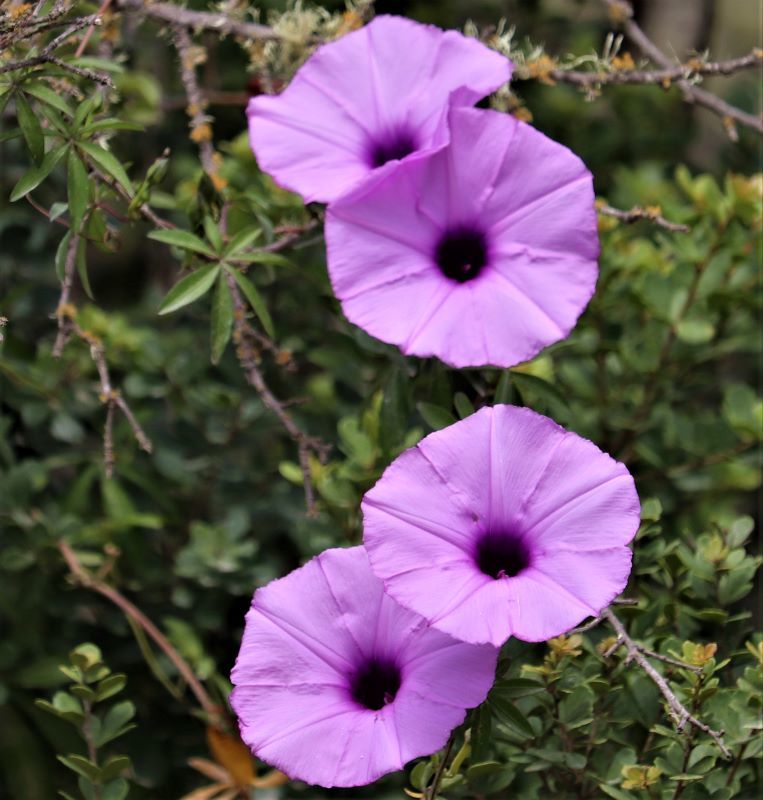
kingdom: Plantae
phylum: Tracheophyta
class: Magnoliopsida
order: Solanales
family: Convolvulaceae
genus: Ipomoea
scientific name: Ipomoea cairica
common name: Mile a minute vine
